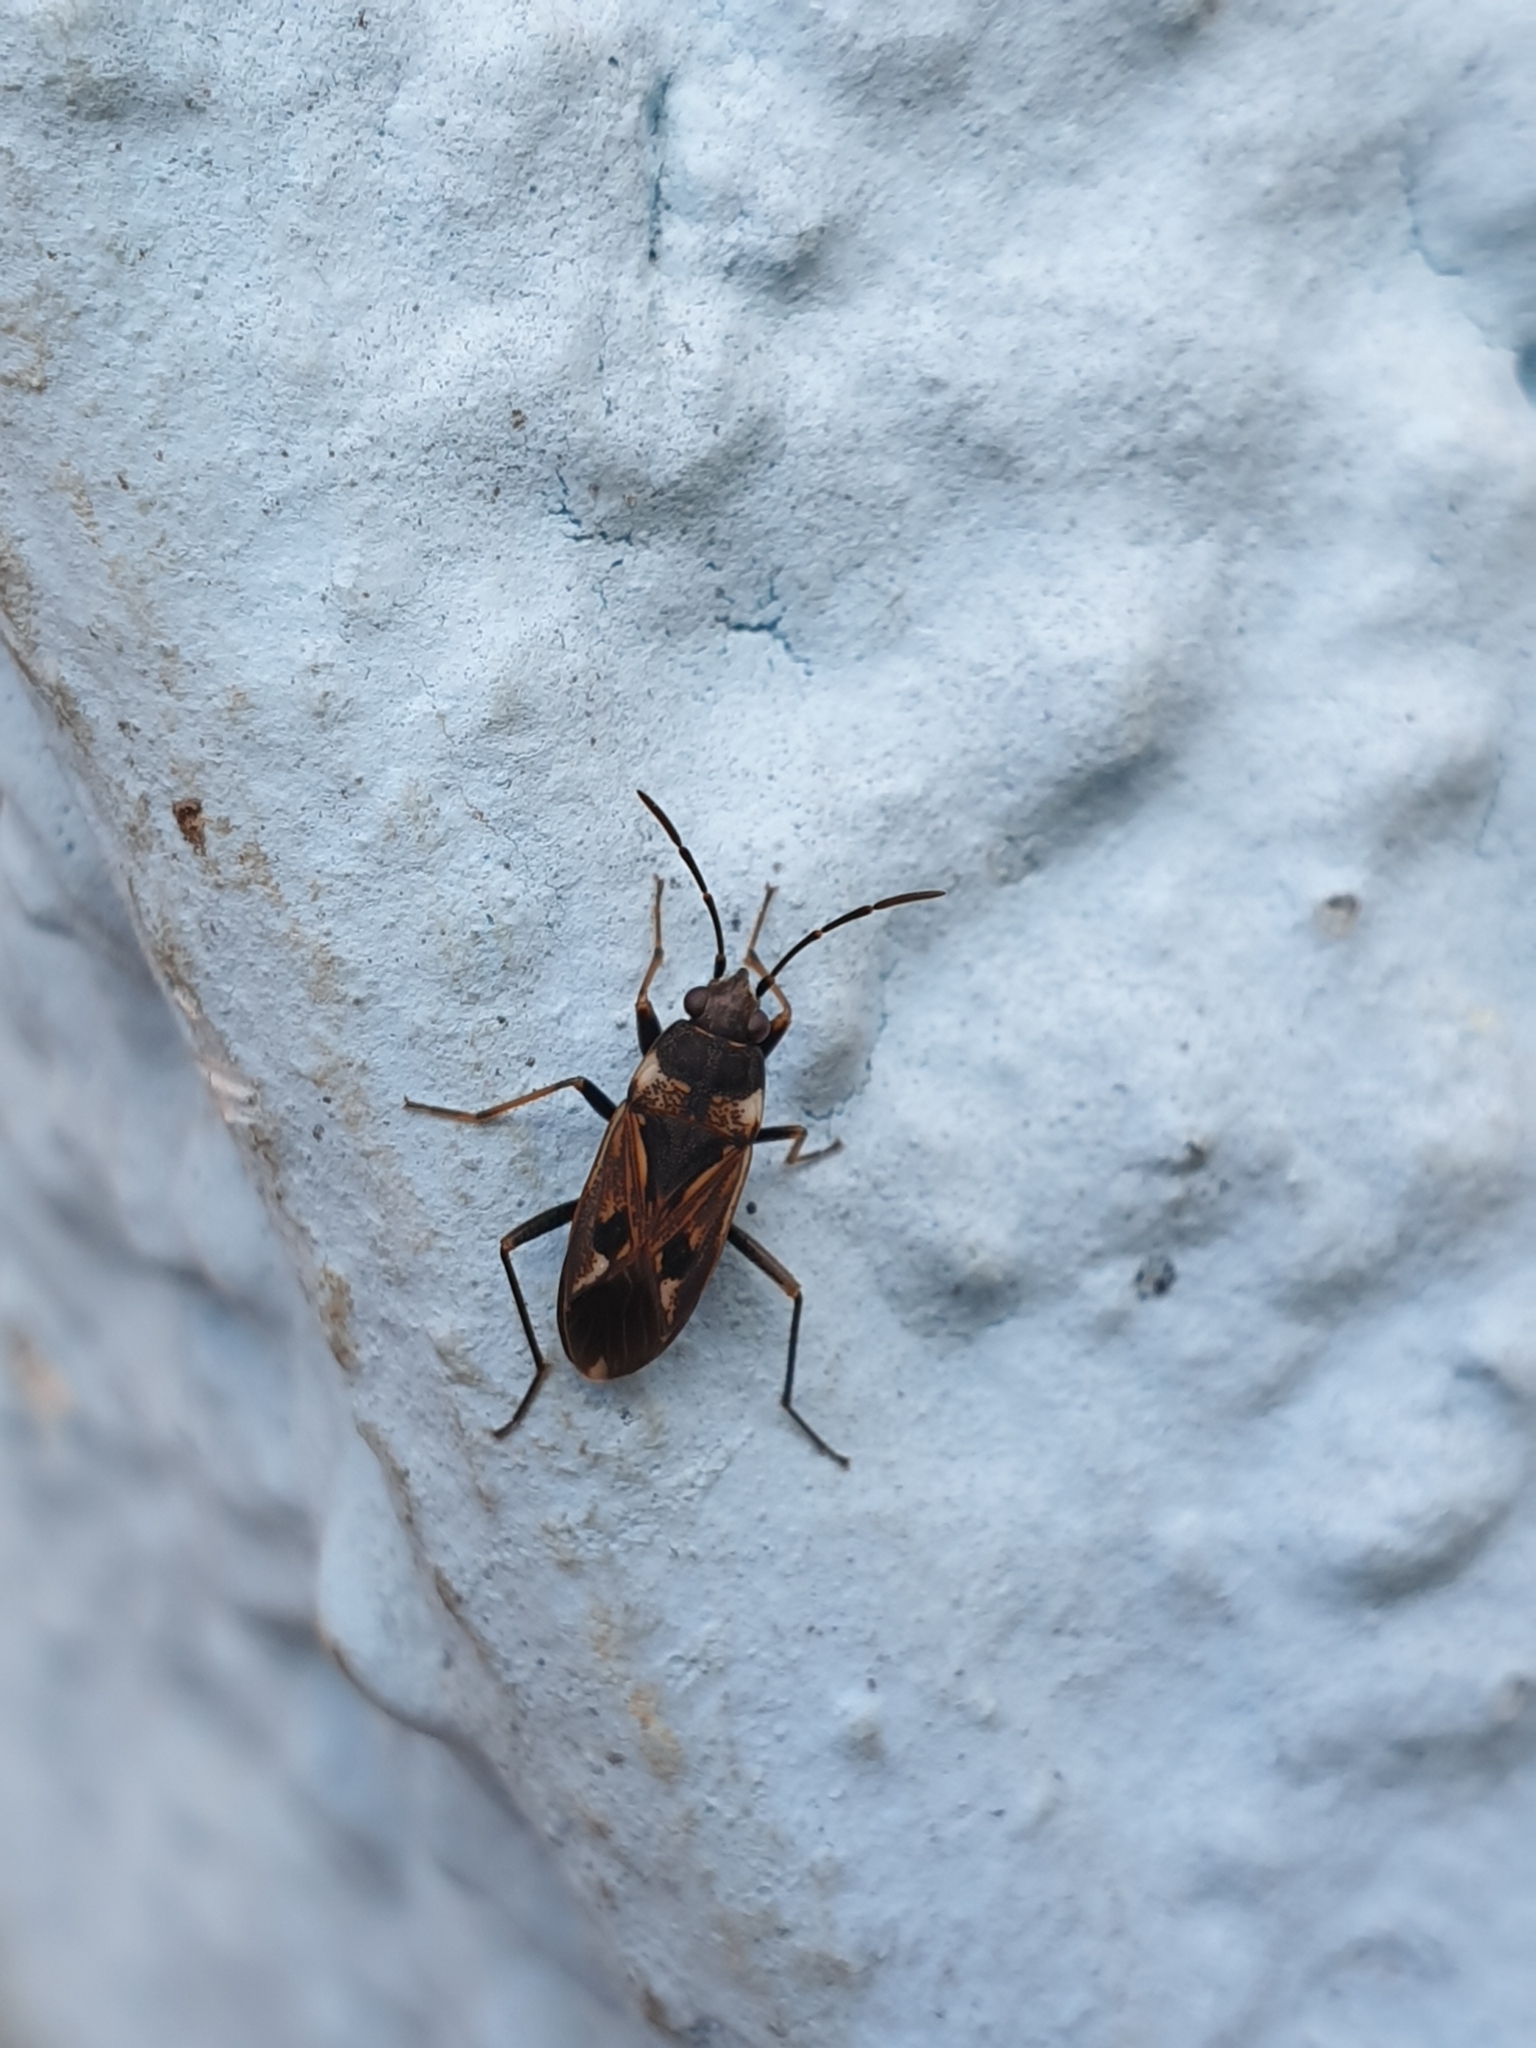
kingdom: Animalia
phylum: Arthropoda
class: Insecta
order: Hemiptera
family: Rhyparochromidae
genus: Rhyparochromus
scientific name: Rhyparochromus vulgaris
